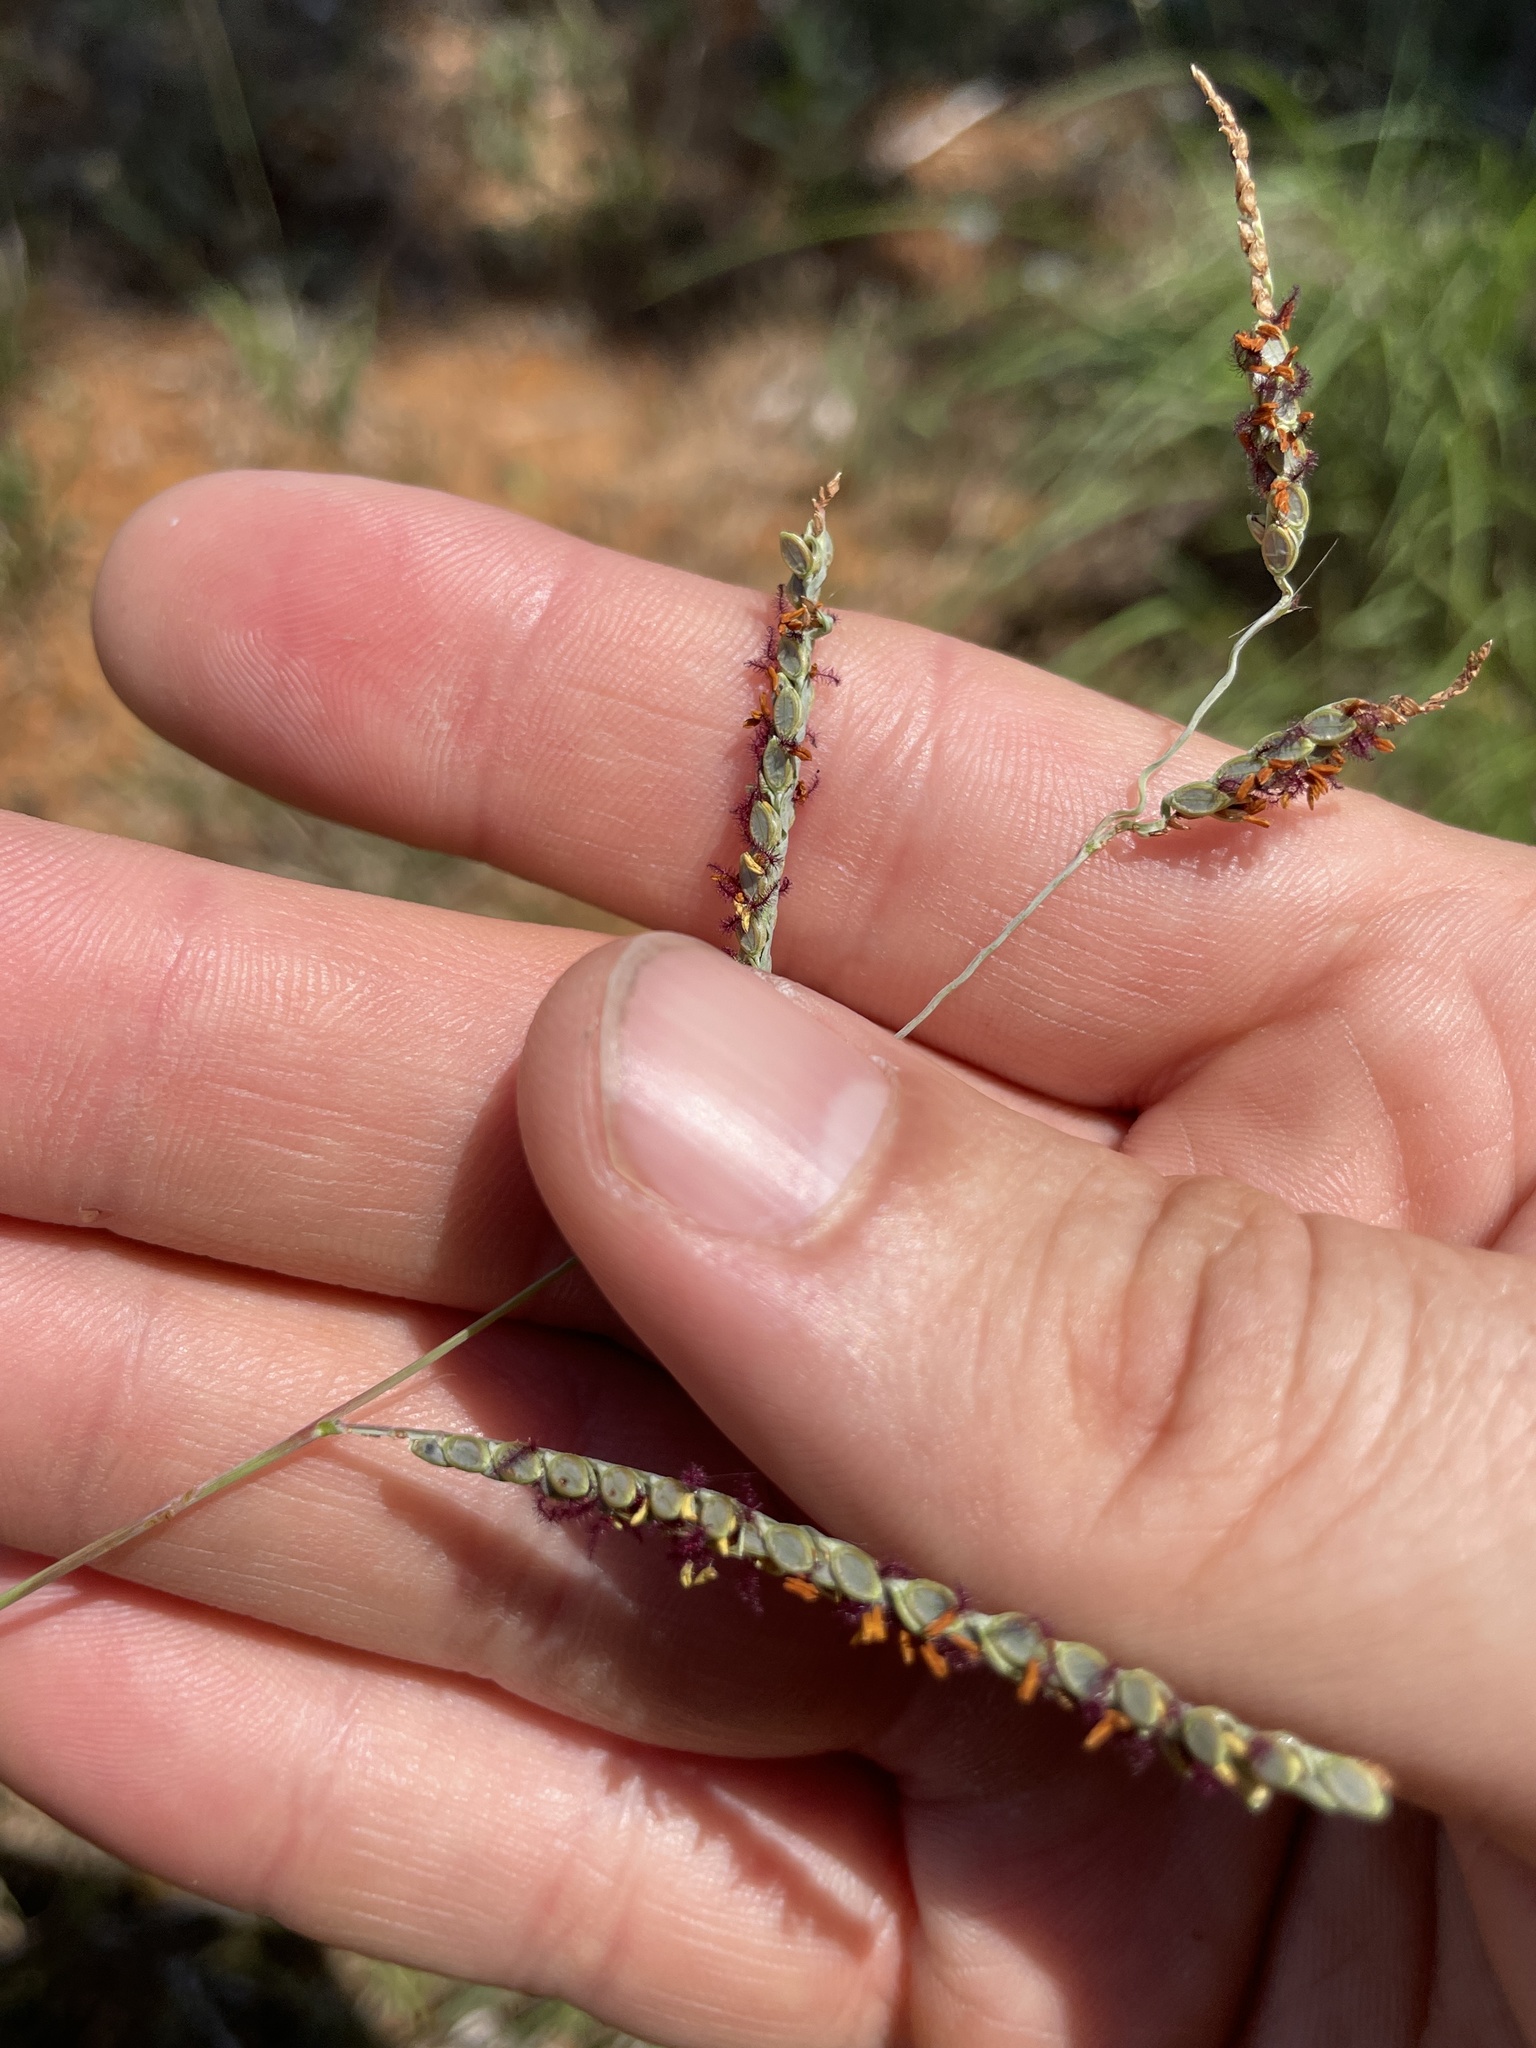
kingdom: Plantae
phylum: Tracheophyta
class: Liliopsida
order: Poales
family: Poaceae
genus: Paspalum
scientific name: Paspalum plicatulum
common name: Top paspalum
